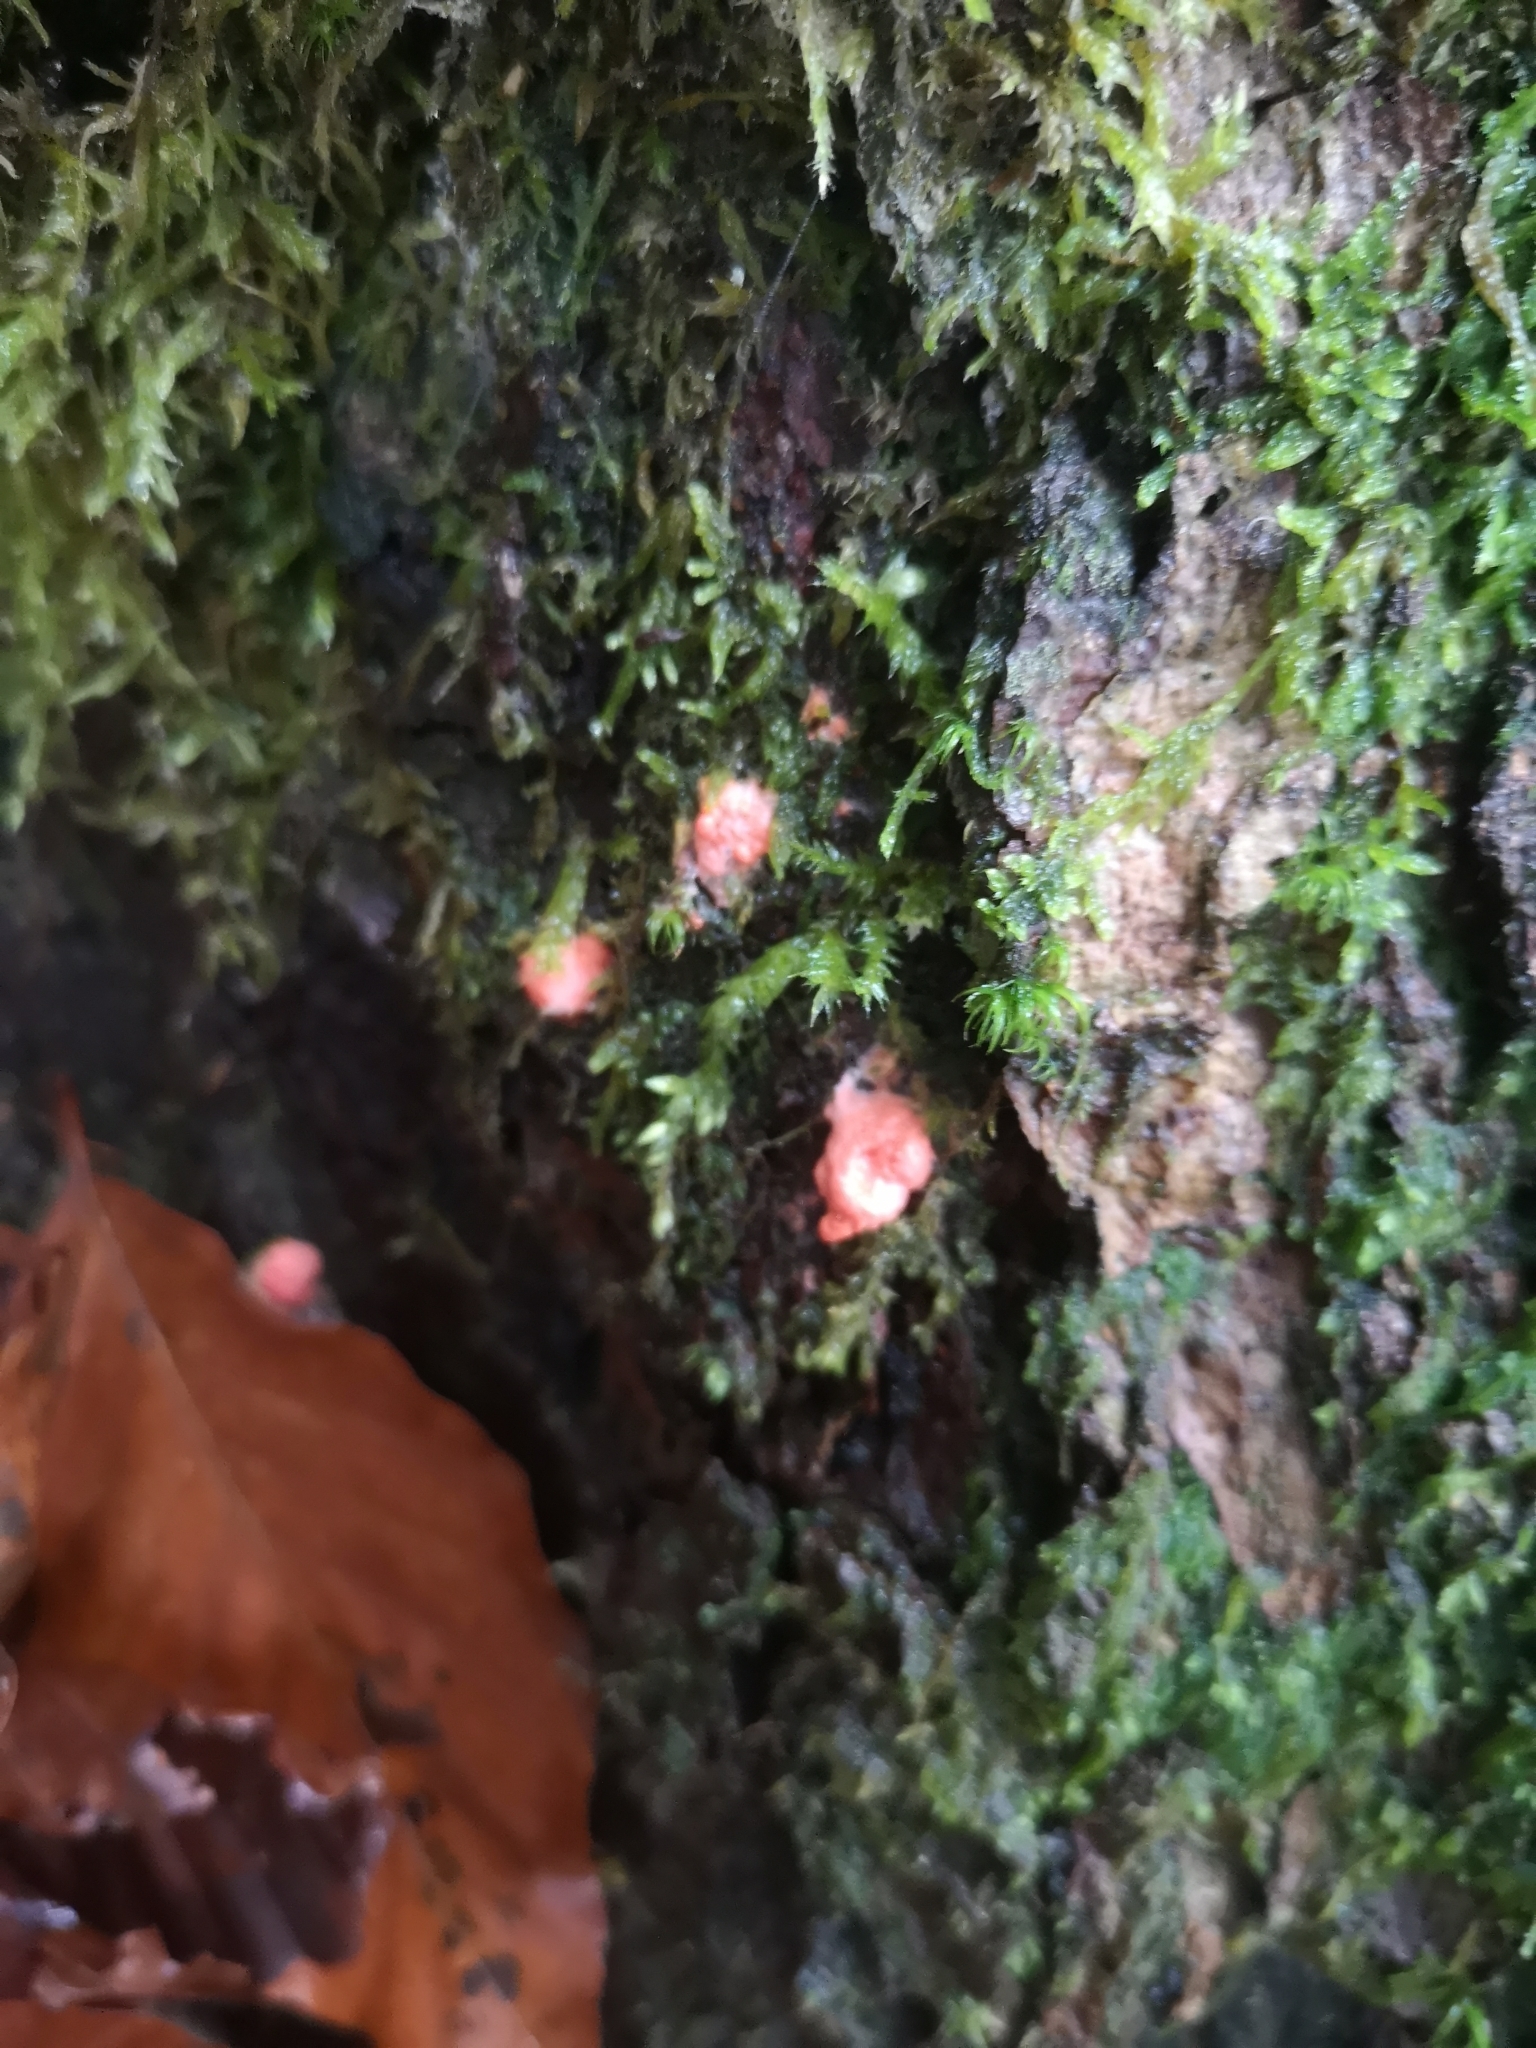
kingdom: Protozoa
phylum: Mycetozoa
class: Myxomycetes
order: Trichiales
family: Dictydiaethaliaceae
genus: Dictydiaethalium
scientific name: Dictydiaethalium plumbeum
